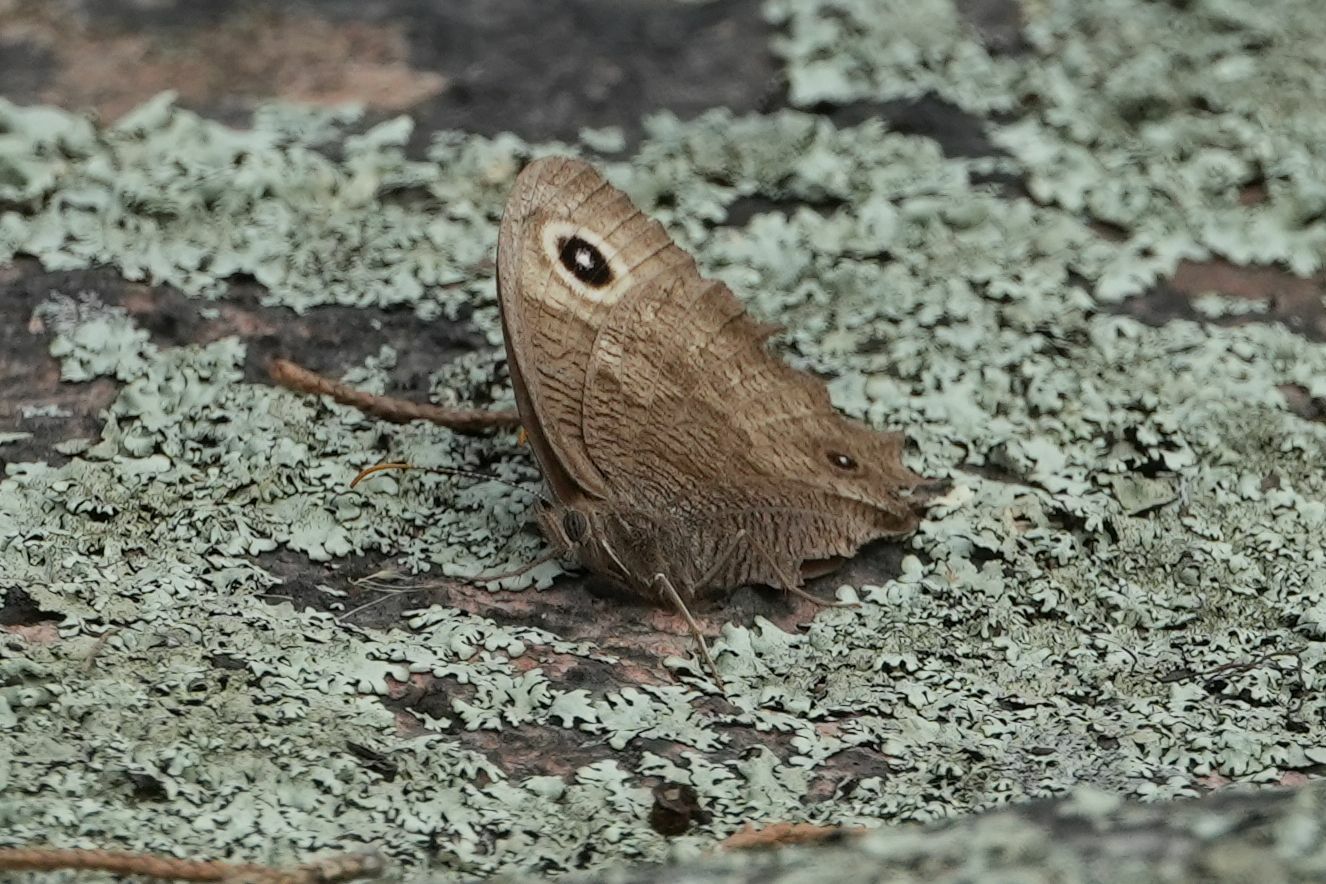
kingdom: Animalia
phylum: Arthropoda
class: Insecta
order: Lepidoptera
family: Nymphalidae
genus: Cercyonis
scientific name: Cercyonis pegala
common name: Common wood-nymph
